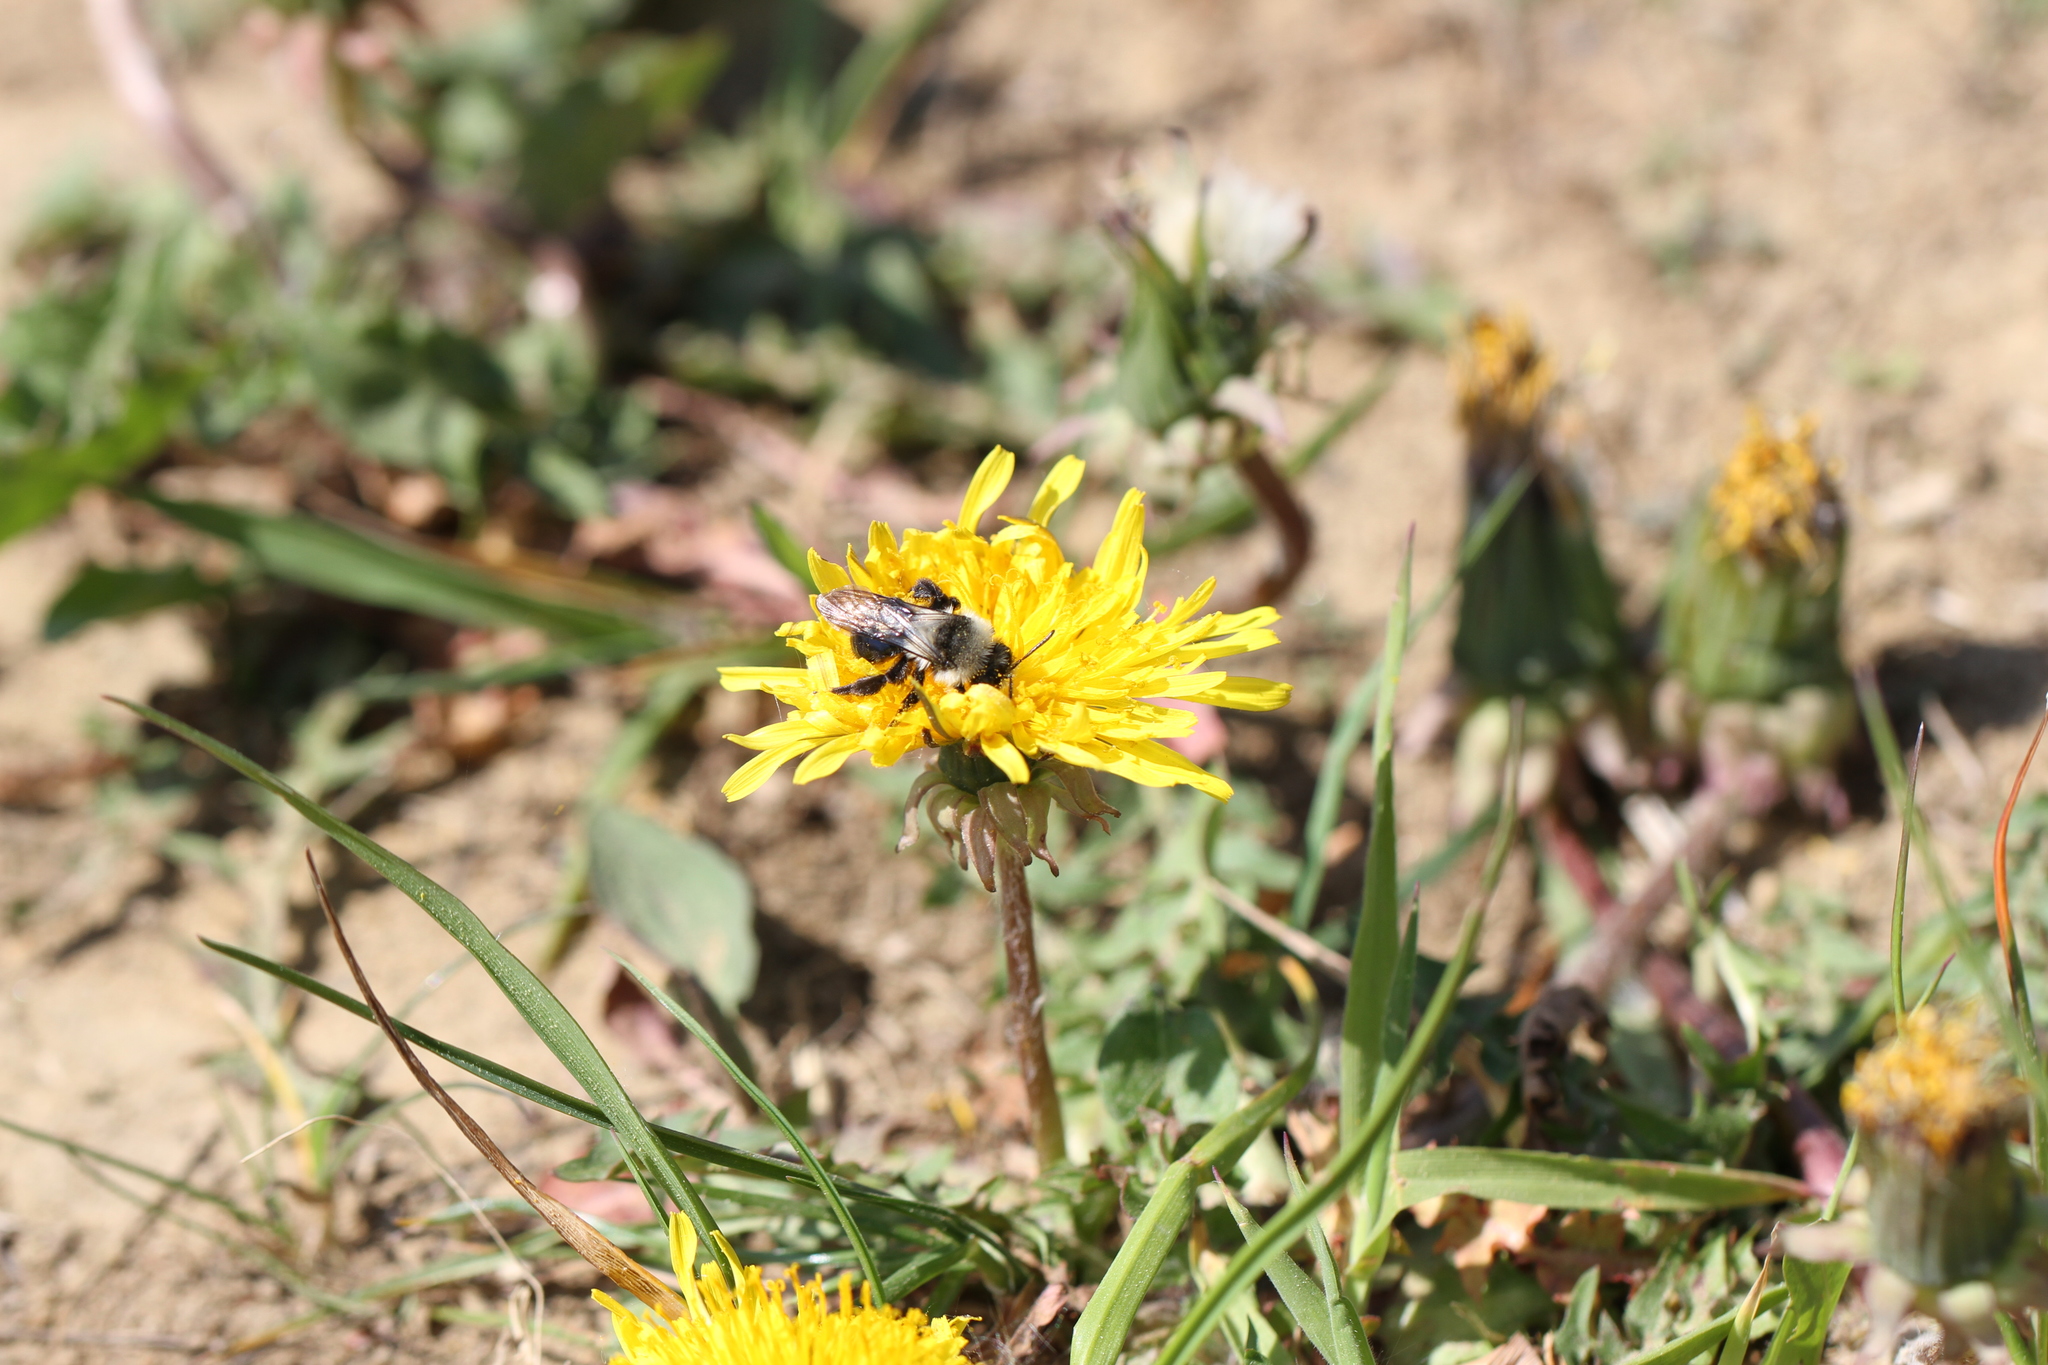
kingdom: Animalia
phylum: Arthropoda
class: Insecta
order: Hymenoptera
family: Andrenidae
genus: Andrena
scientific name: Andrena cineraria
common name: Ashy mining bee
